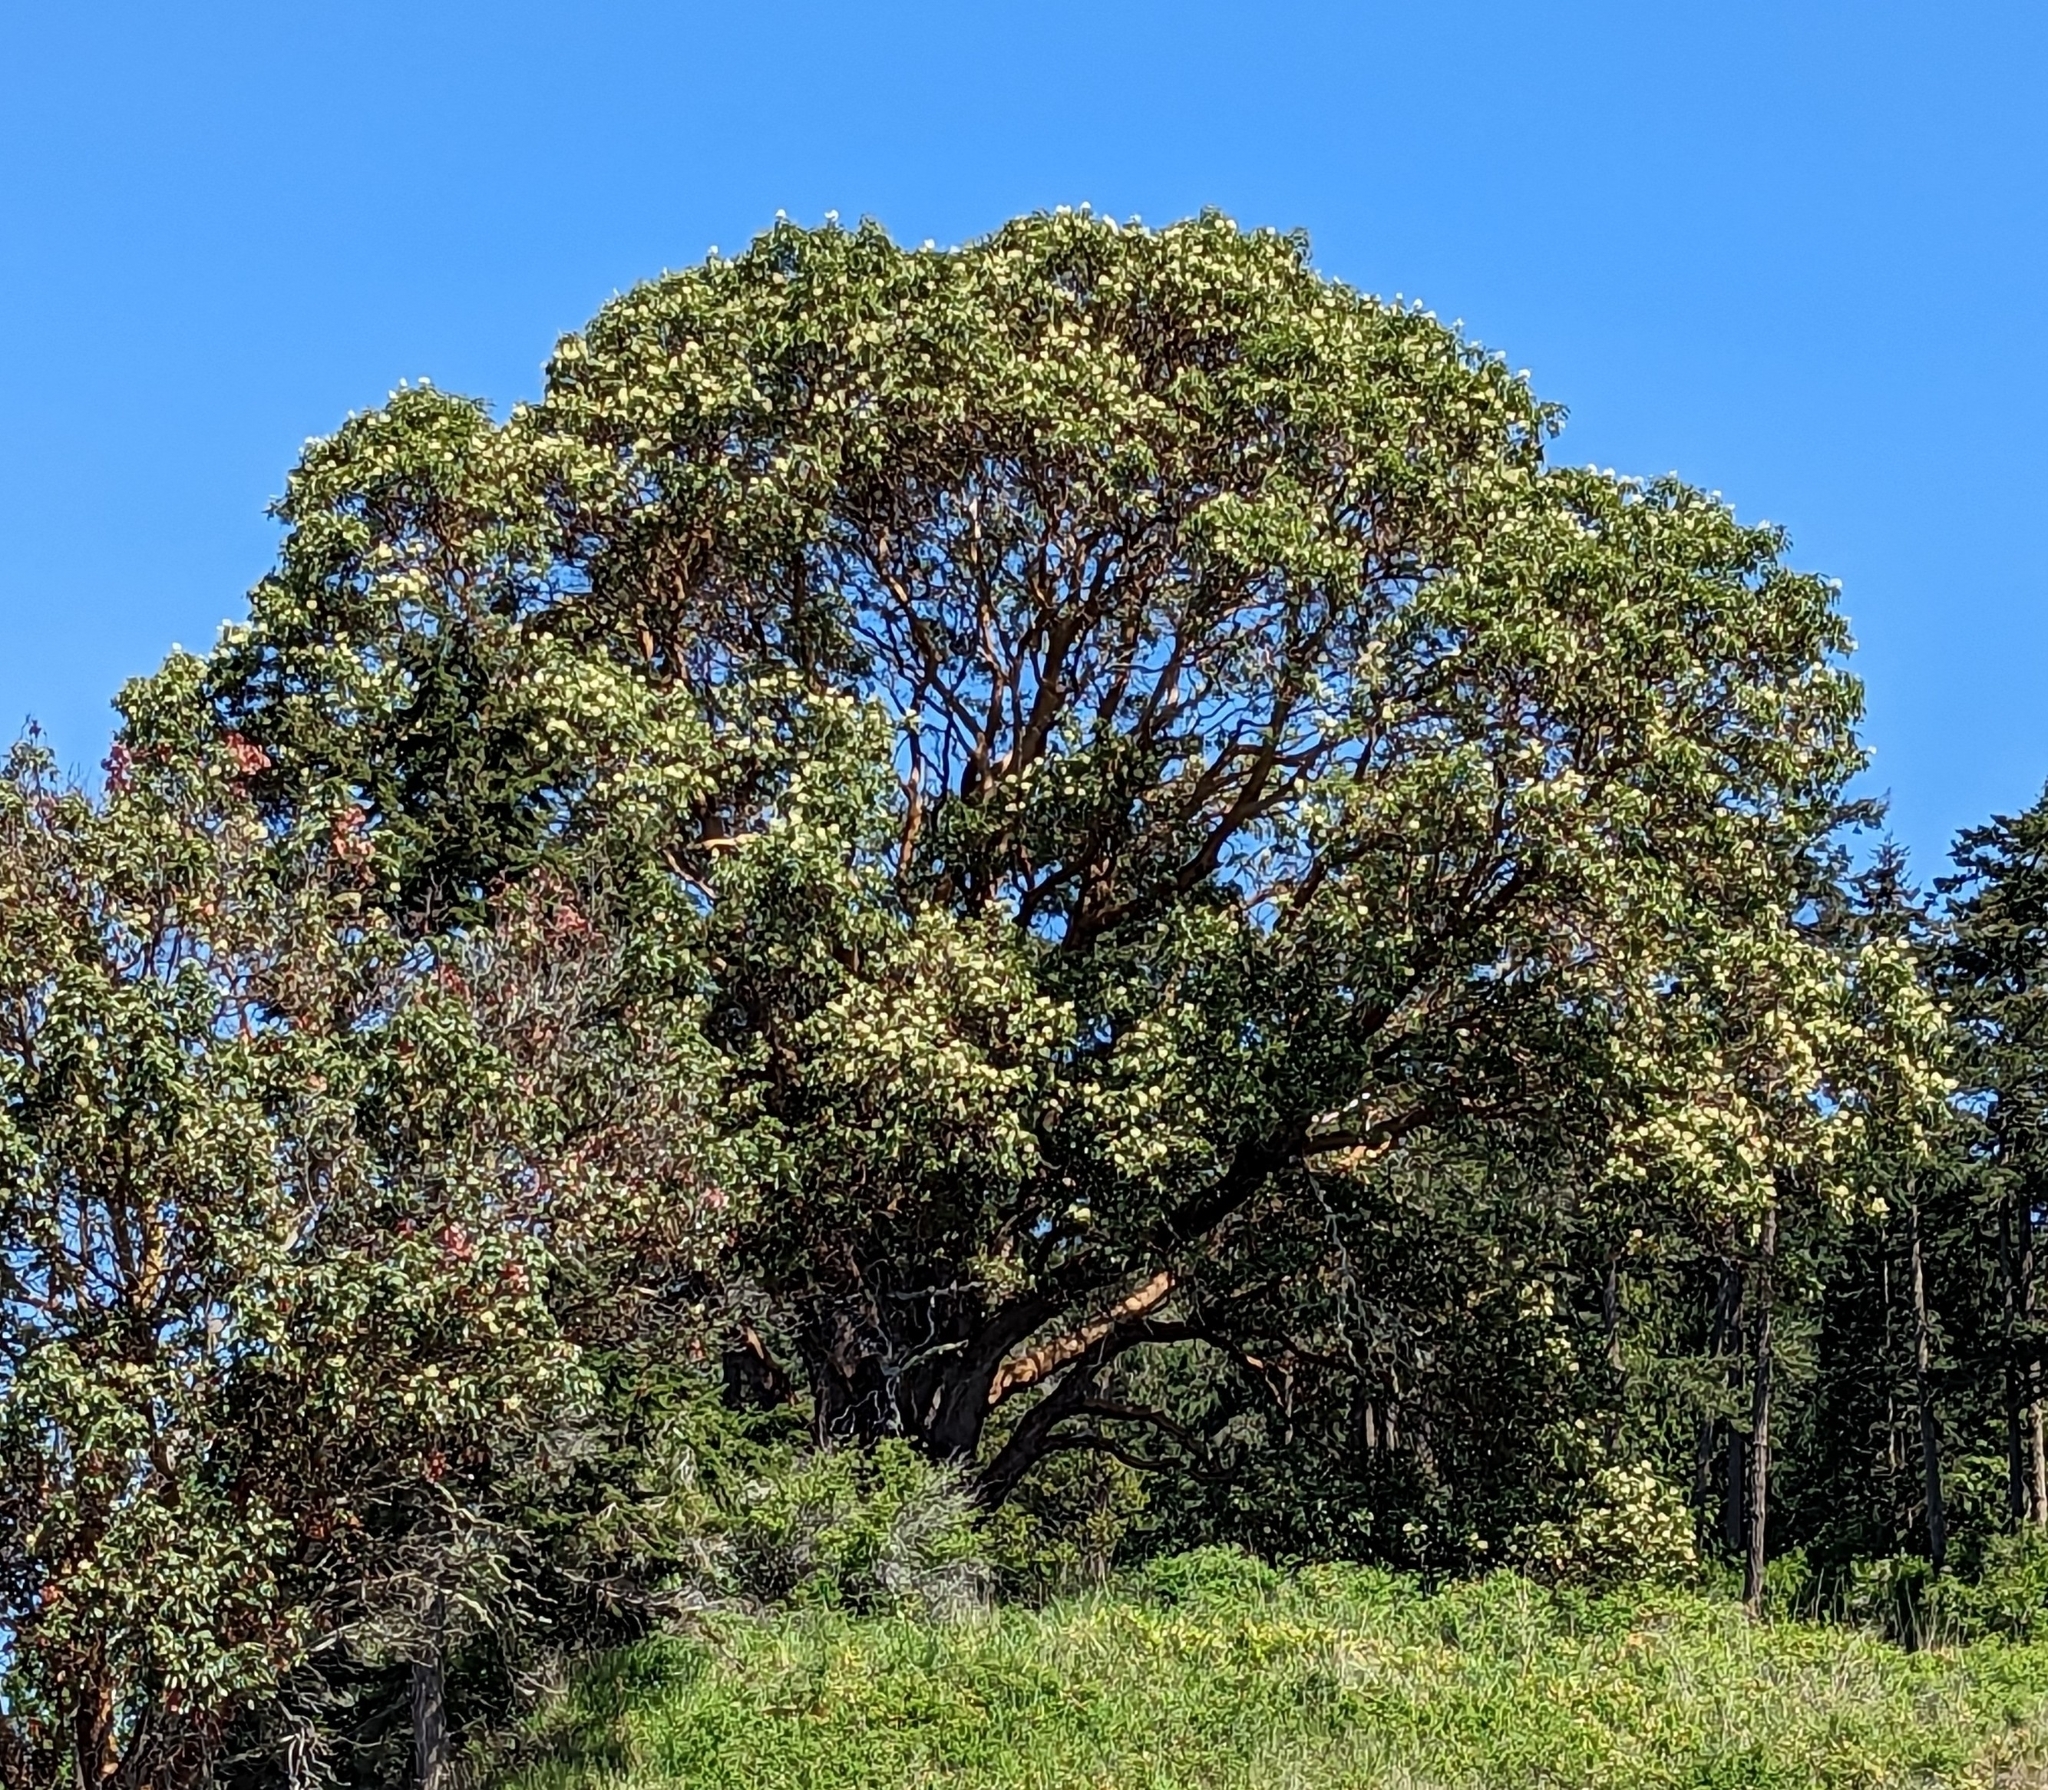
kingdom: Plantae
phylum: Tracheophyta
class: Magnoliopsida
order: Ericales
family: Ericaceae
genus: Arbutus
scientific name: Arbutus menziesii
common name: Pacific madrone
